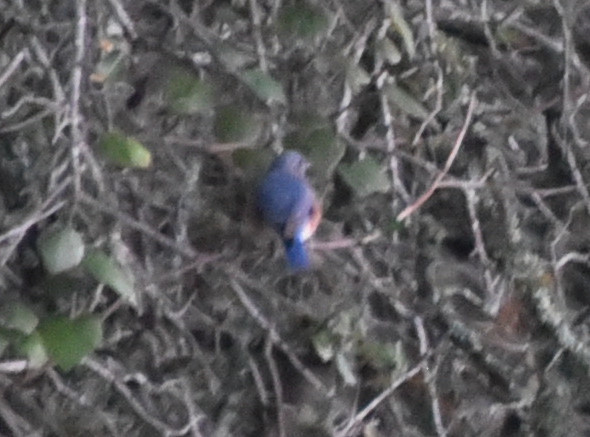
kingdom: Animalia
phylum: Chordata
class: Aves
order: Passeriformes
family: Turdidae
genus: Sialia
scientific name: Sialia sialis
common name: Eastern bluebird
